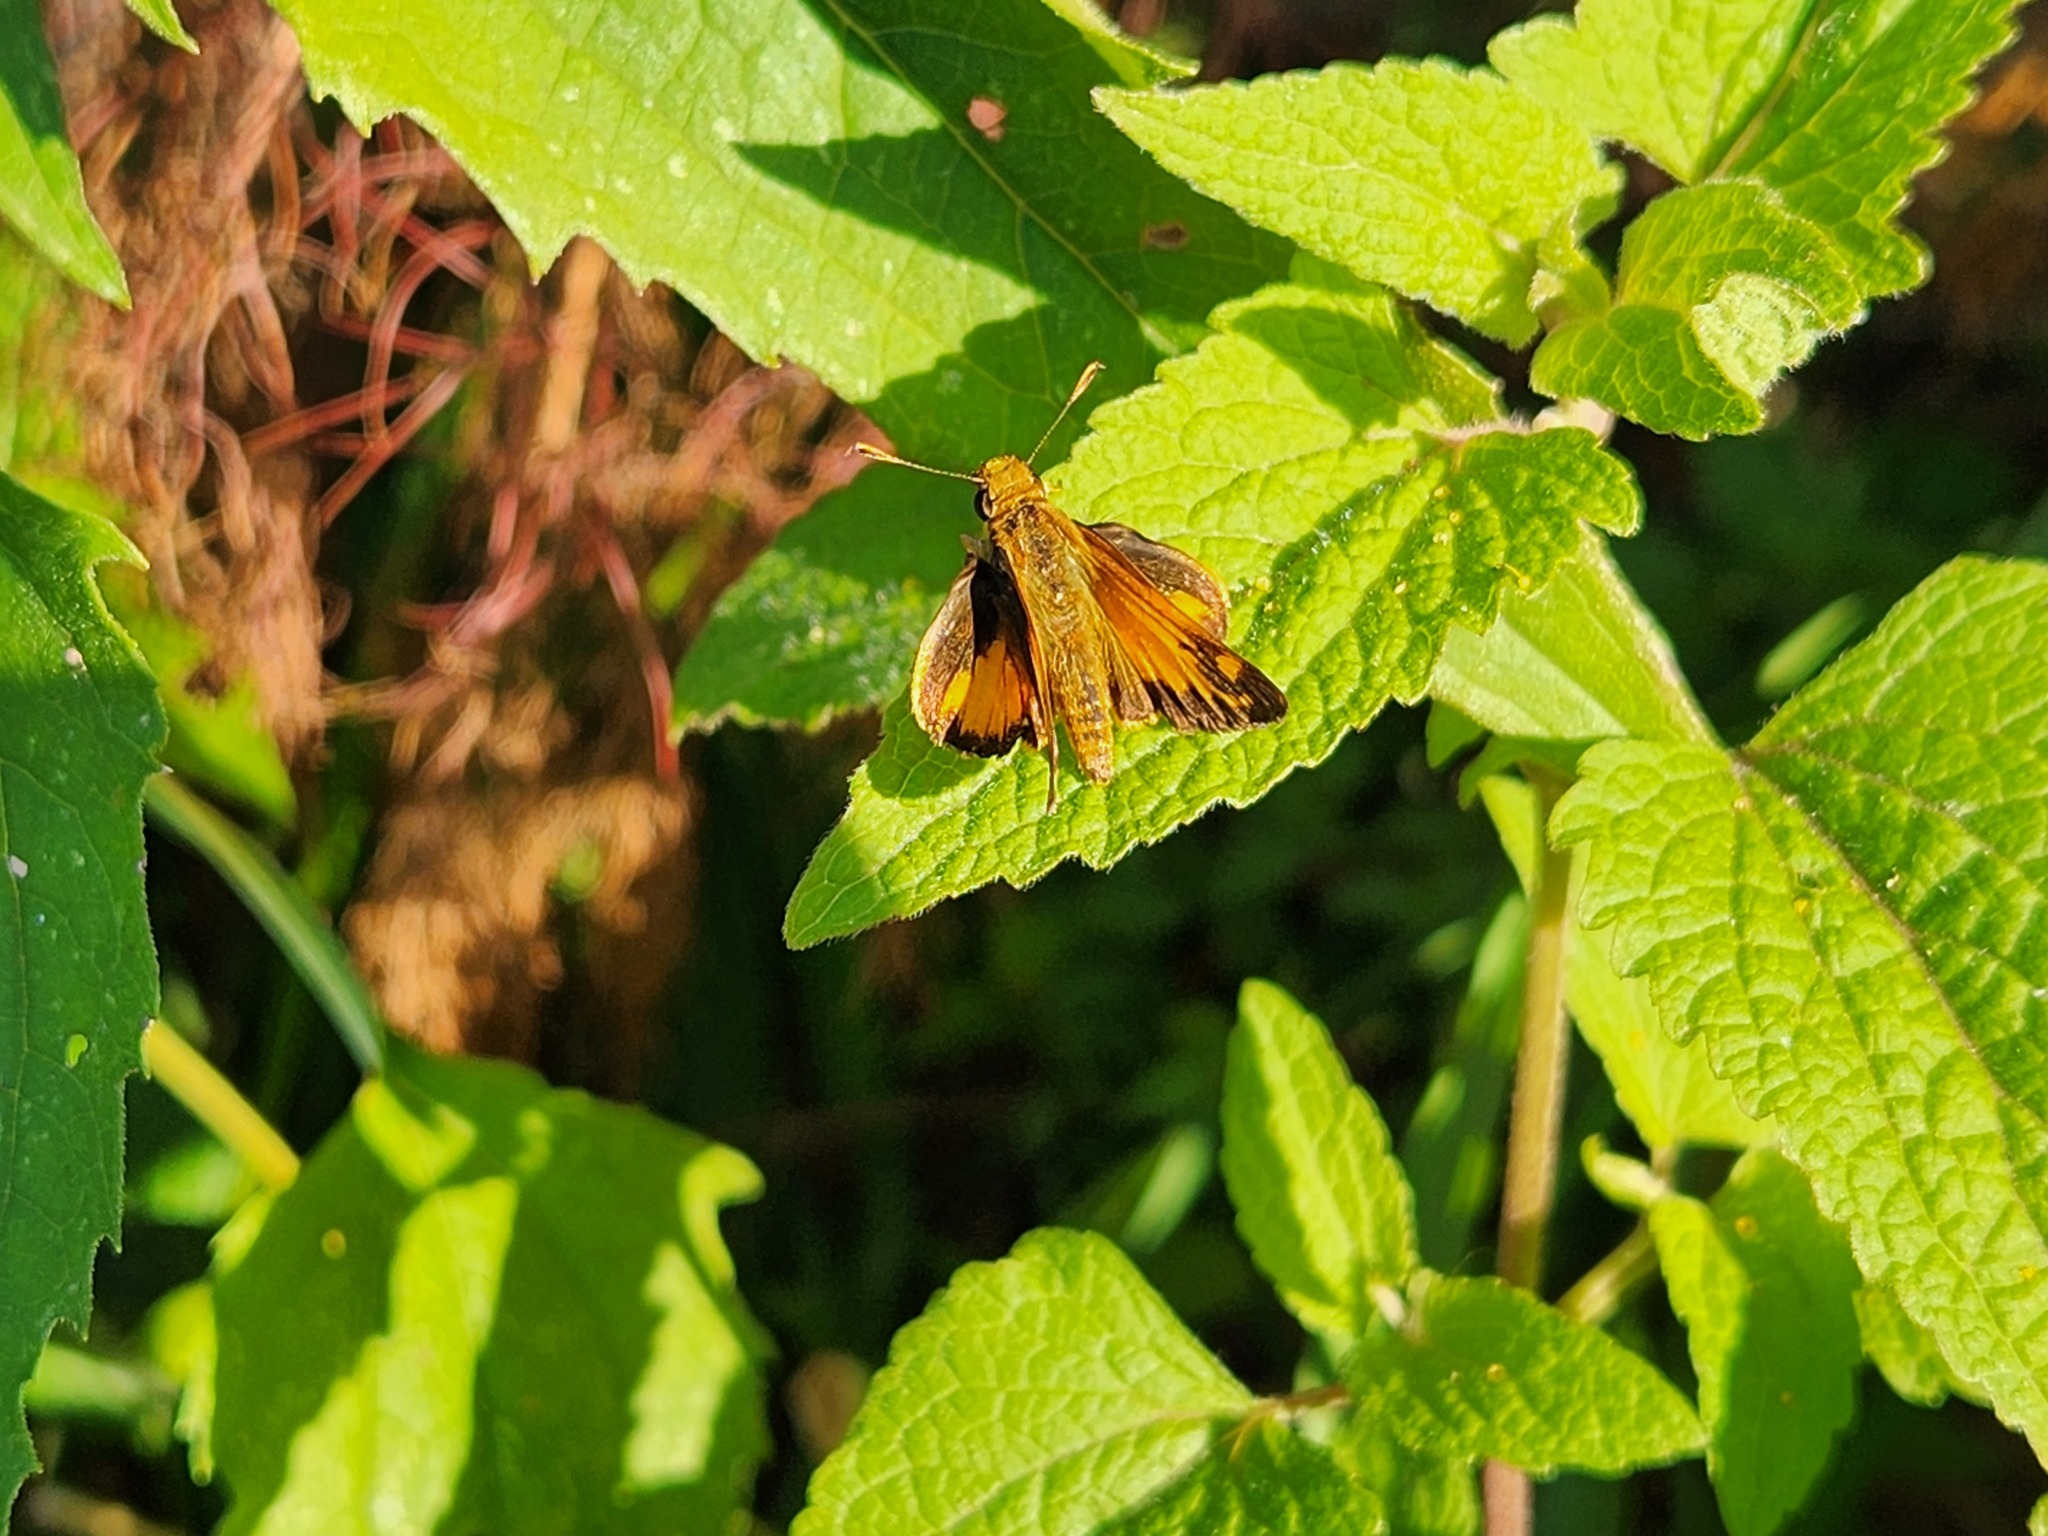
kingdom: Animalia
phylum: Arthropoda
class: Insecta
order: Lepidoptera
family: Hesperiidae
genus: Lon
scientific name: Lon zabulon
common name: Zabulon skipper
